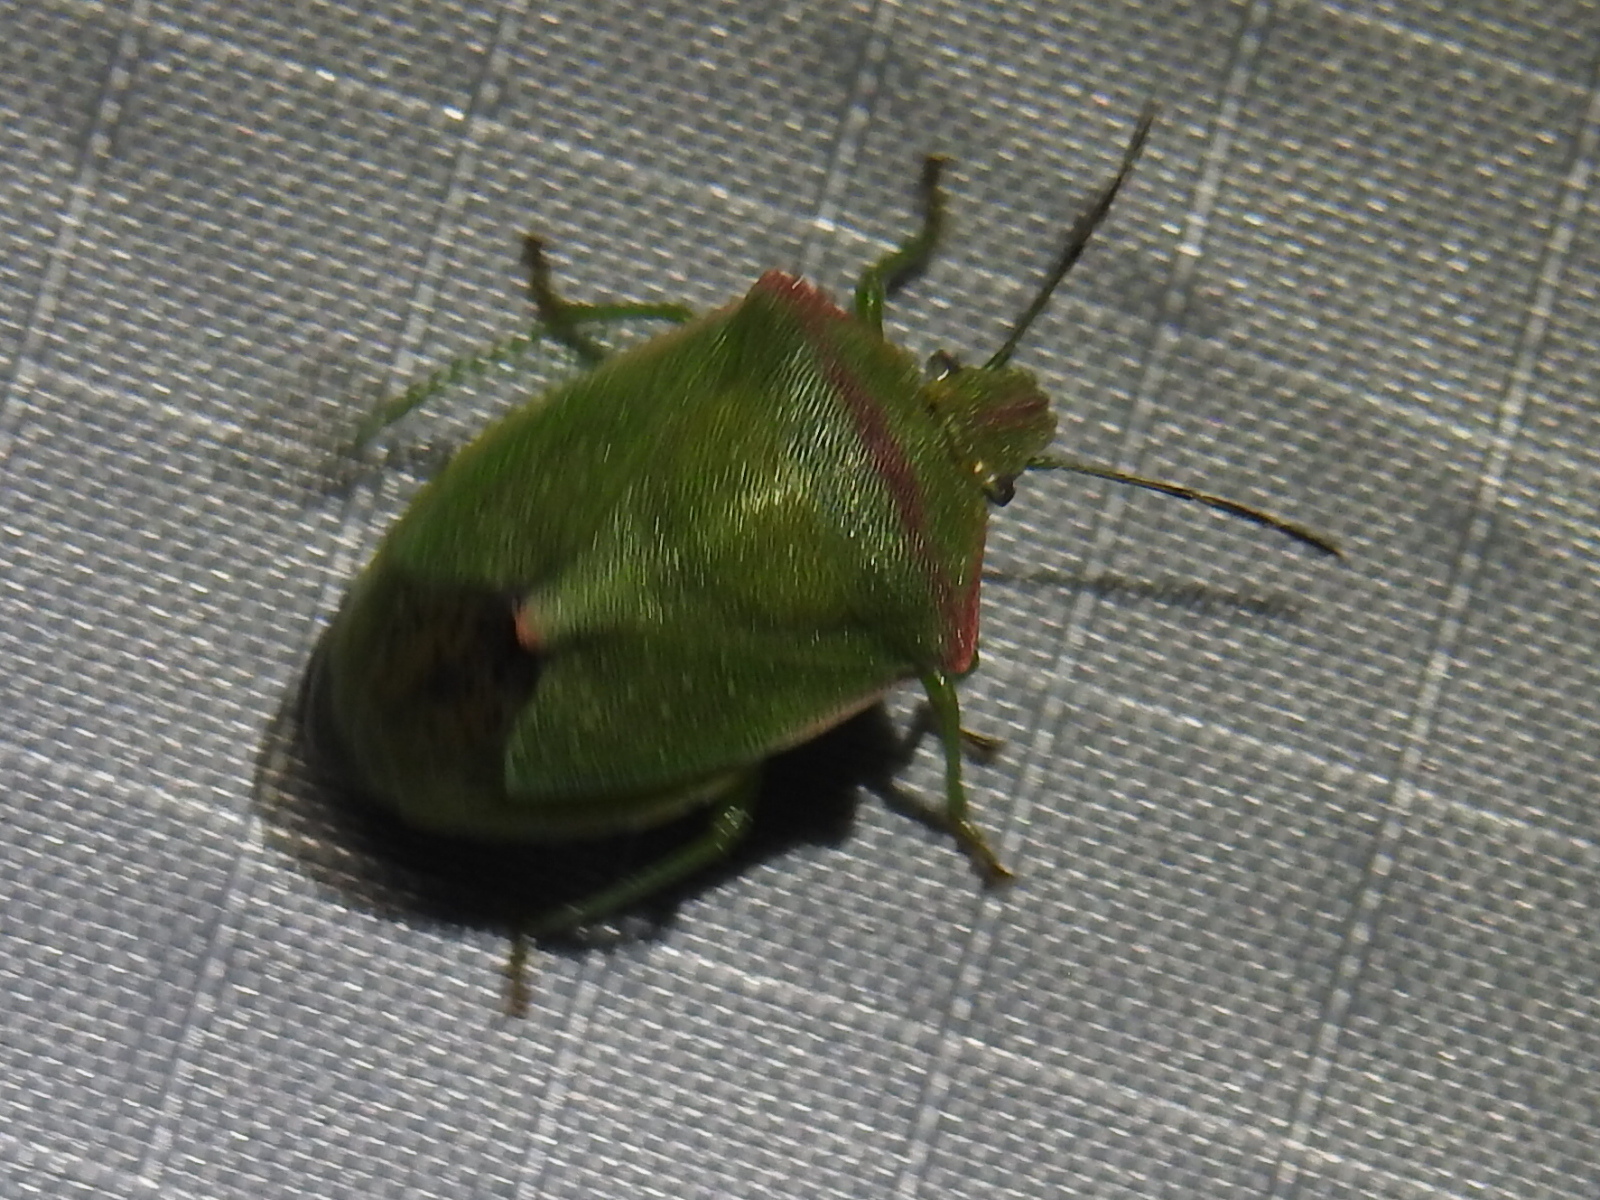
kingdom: Animalia
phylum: Arthropoda
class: Insecta
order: Hemiptera
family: Pentatomidae
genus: Thyanta
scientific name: Thyanta custator
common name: Stink bug
